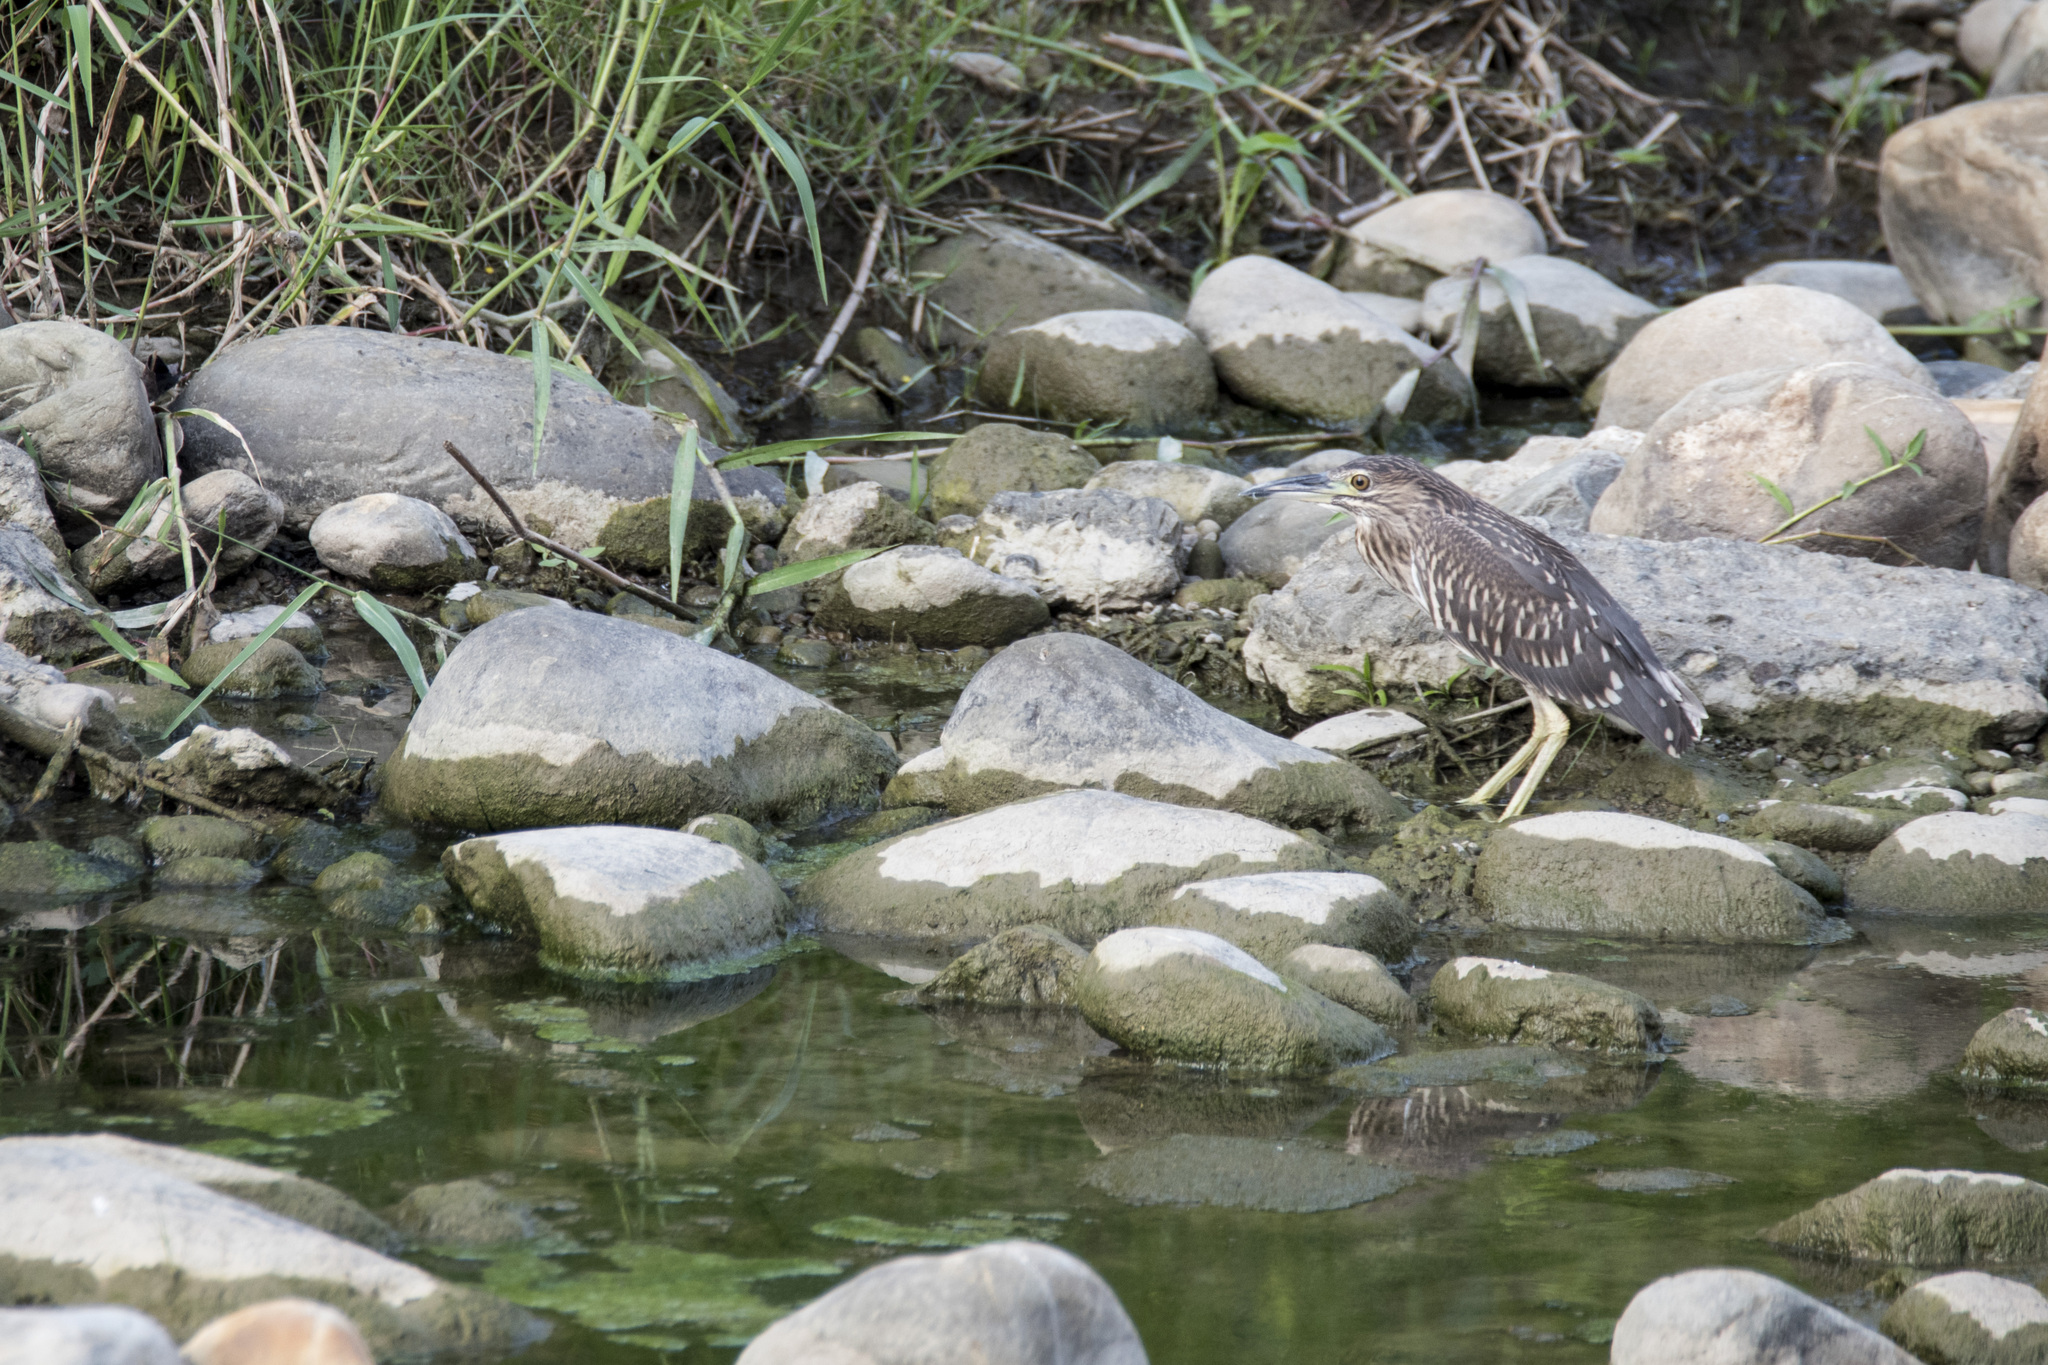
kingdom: Animalia
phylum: Chordata
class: Aves
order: Pelecaniformes
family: Ardeidae
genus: Nycticorax
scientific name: Nycticorax nycticorax
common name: Black-crowned night heron
